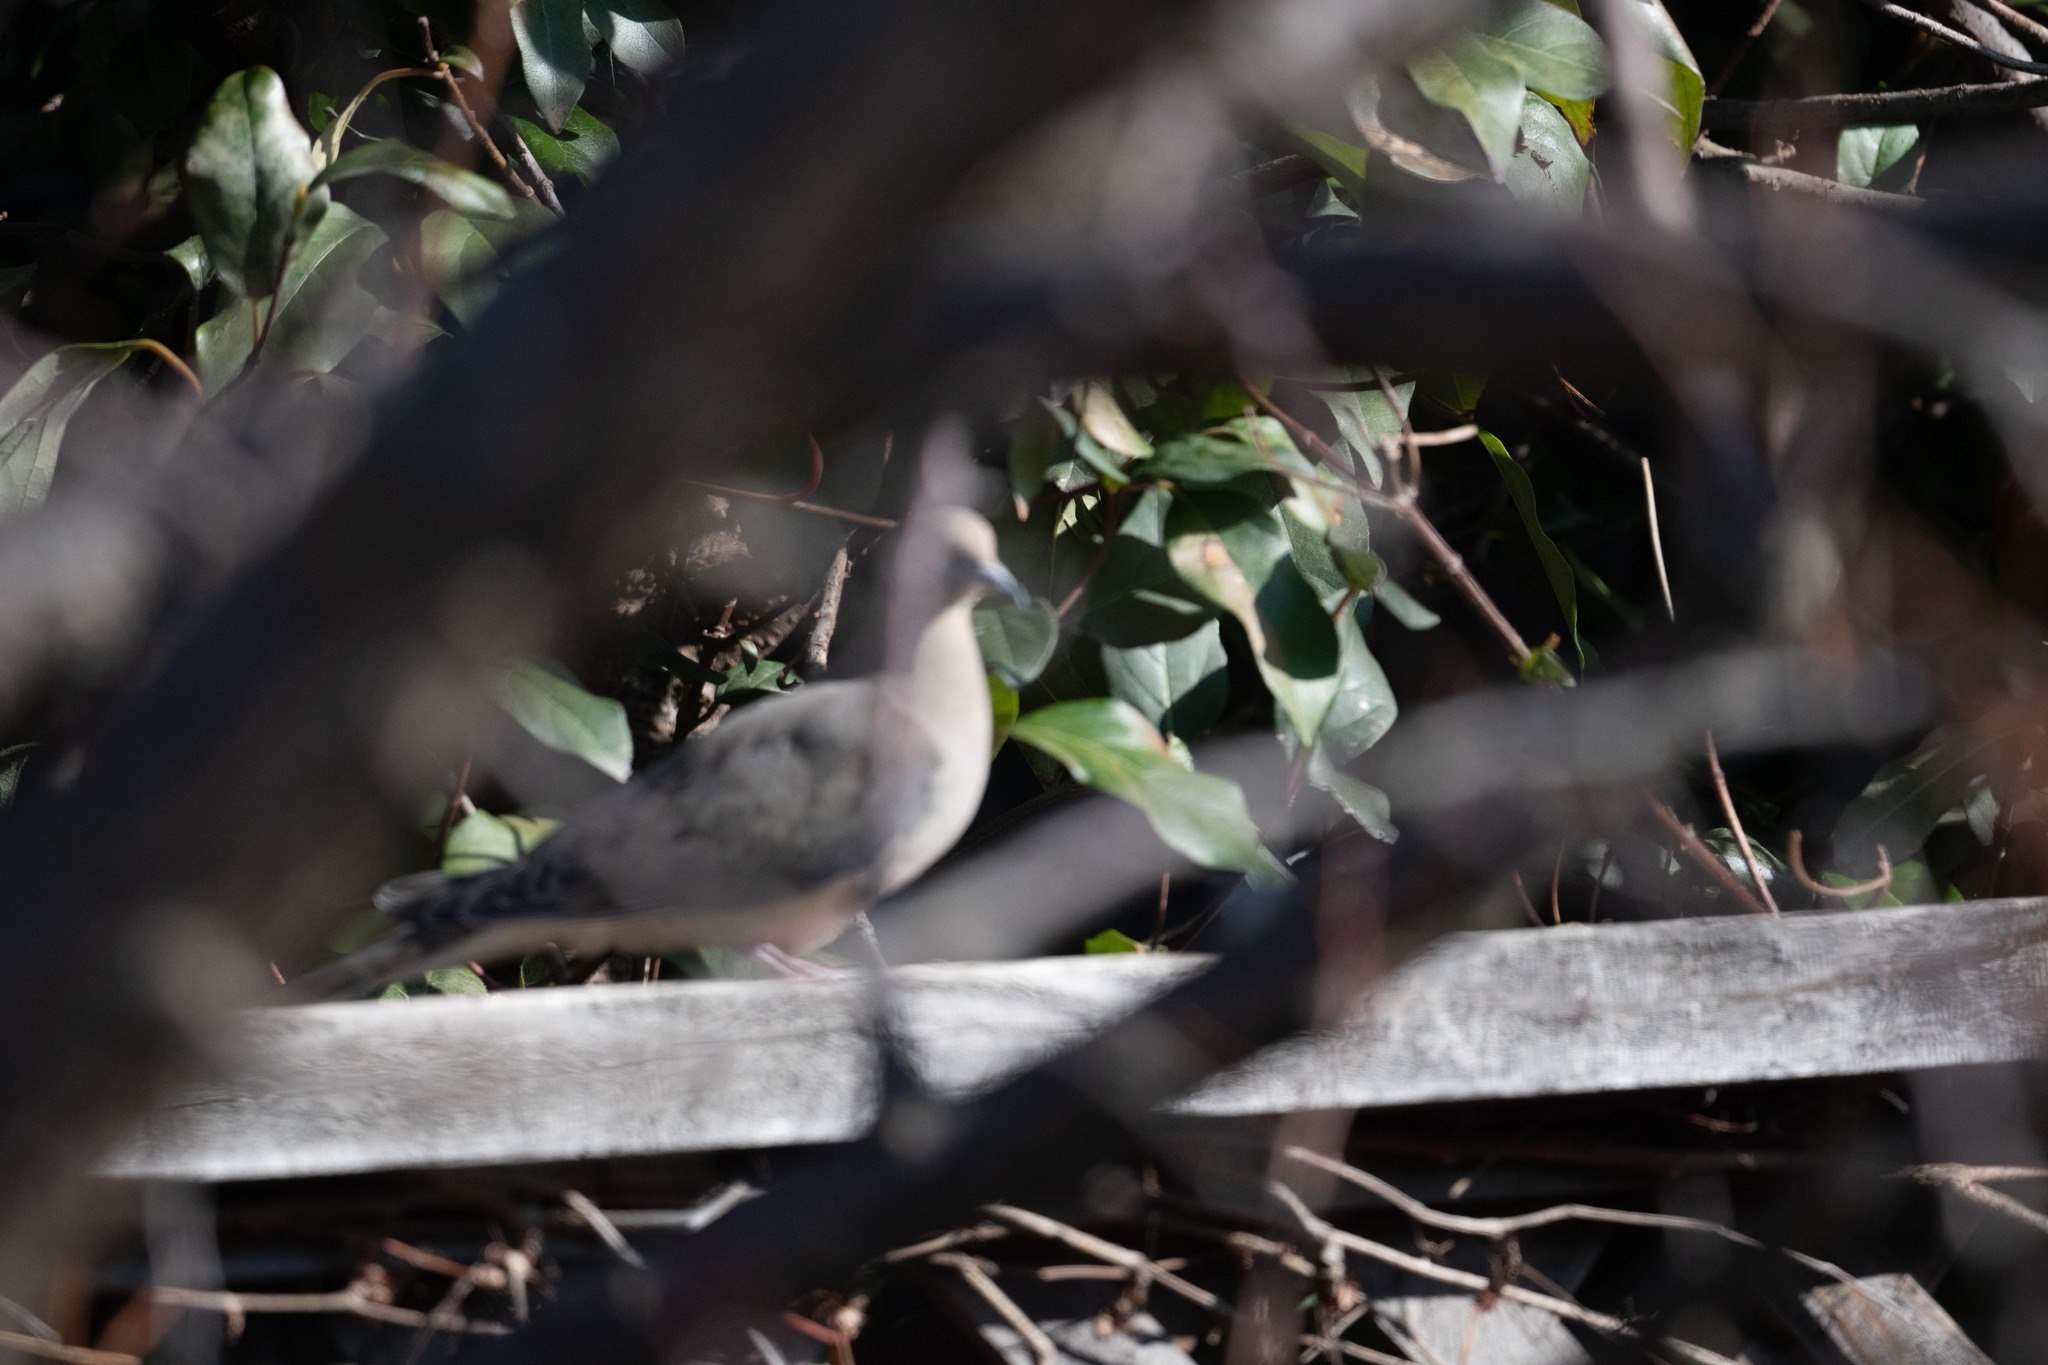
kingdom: Animalia
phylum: Chordata
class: Aves
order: Columbiformes
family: Columbidae
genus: Zenaida
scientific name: Zenaida macroura
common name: Mourning dove
